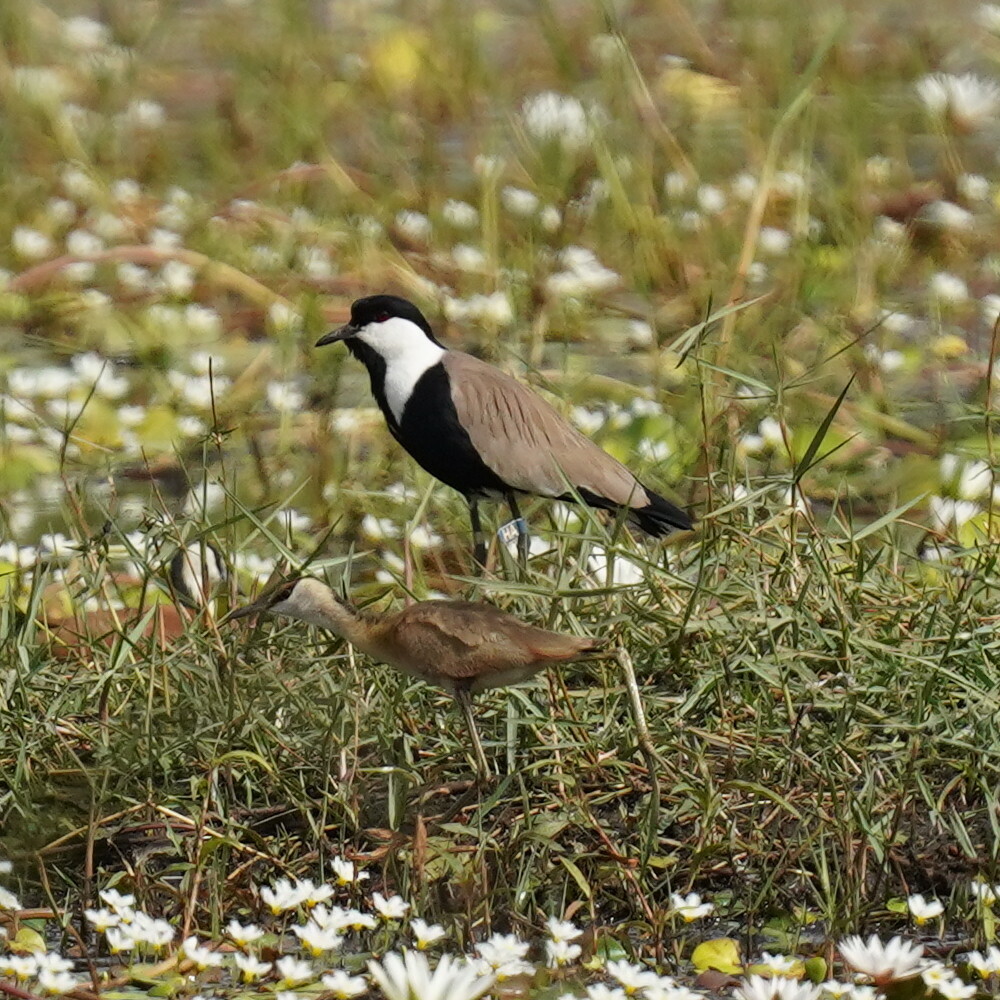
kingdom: Animalia
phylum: Chordata
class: Aves
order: Charadriiformes
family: Charadriidae
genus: Vanellus
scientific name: Vanellus spinosus
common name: Spur-winged lapwing
